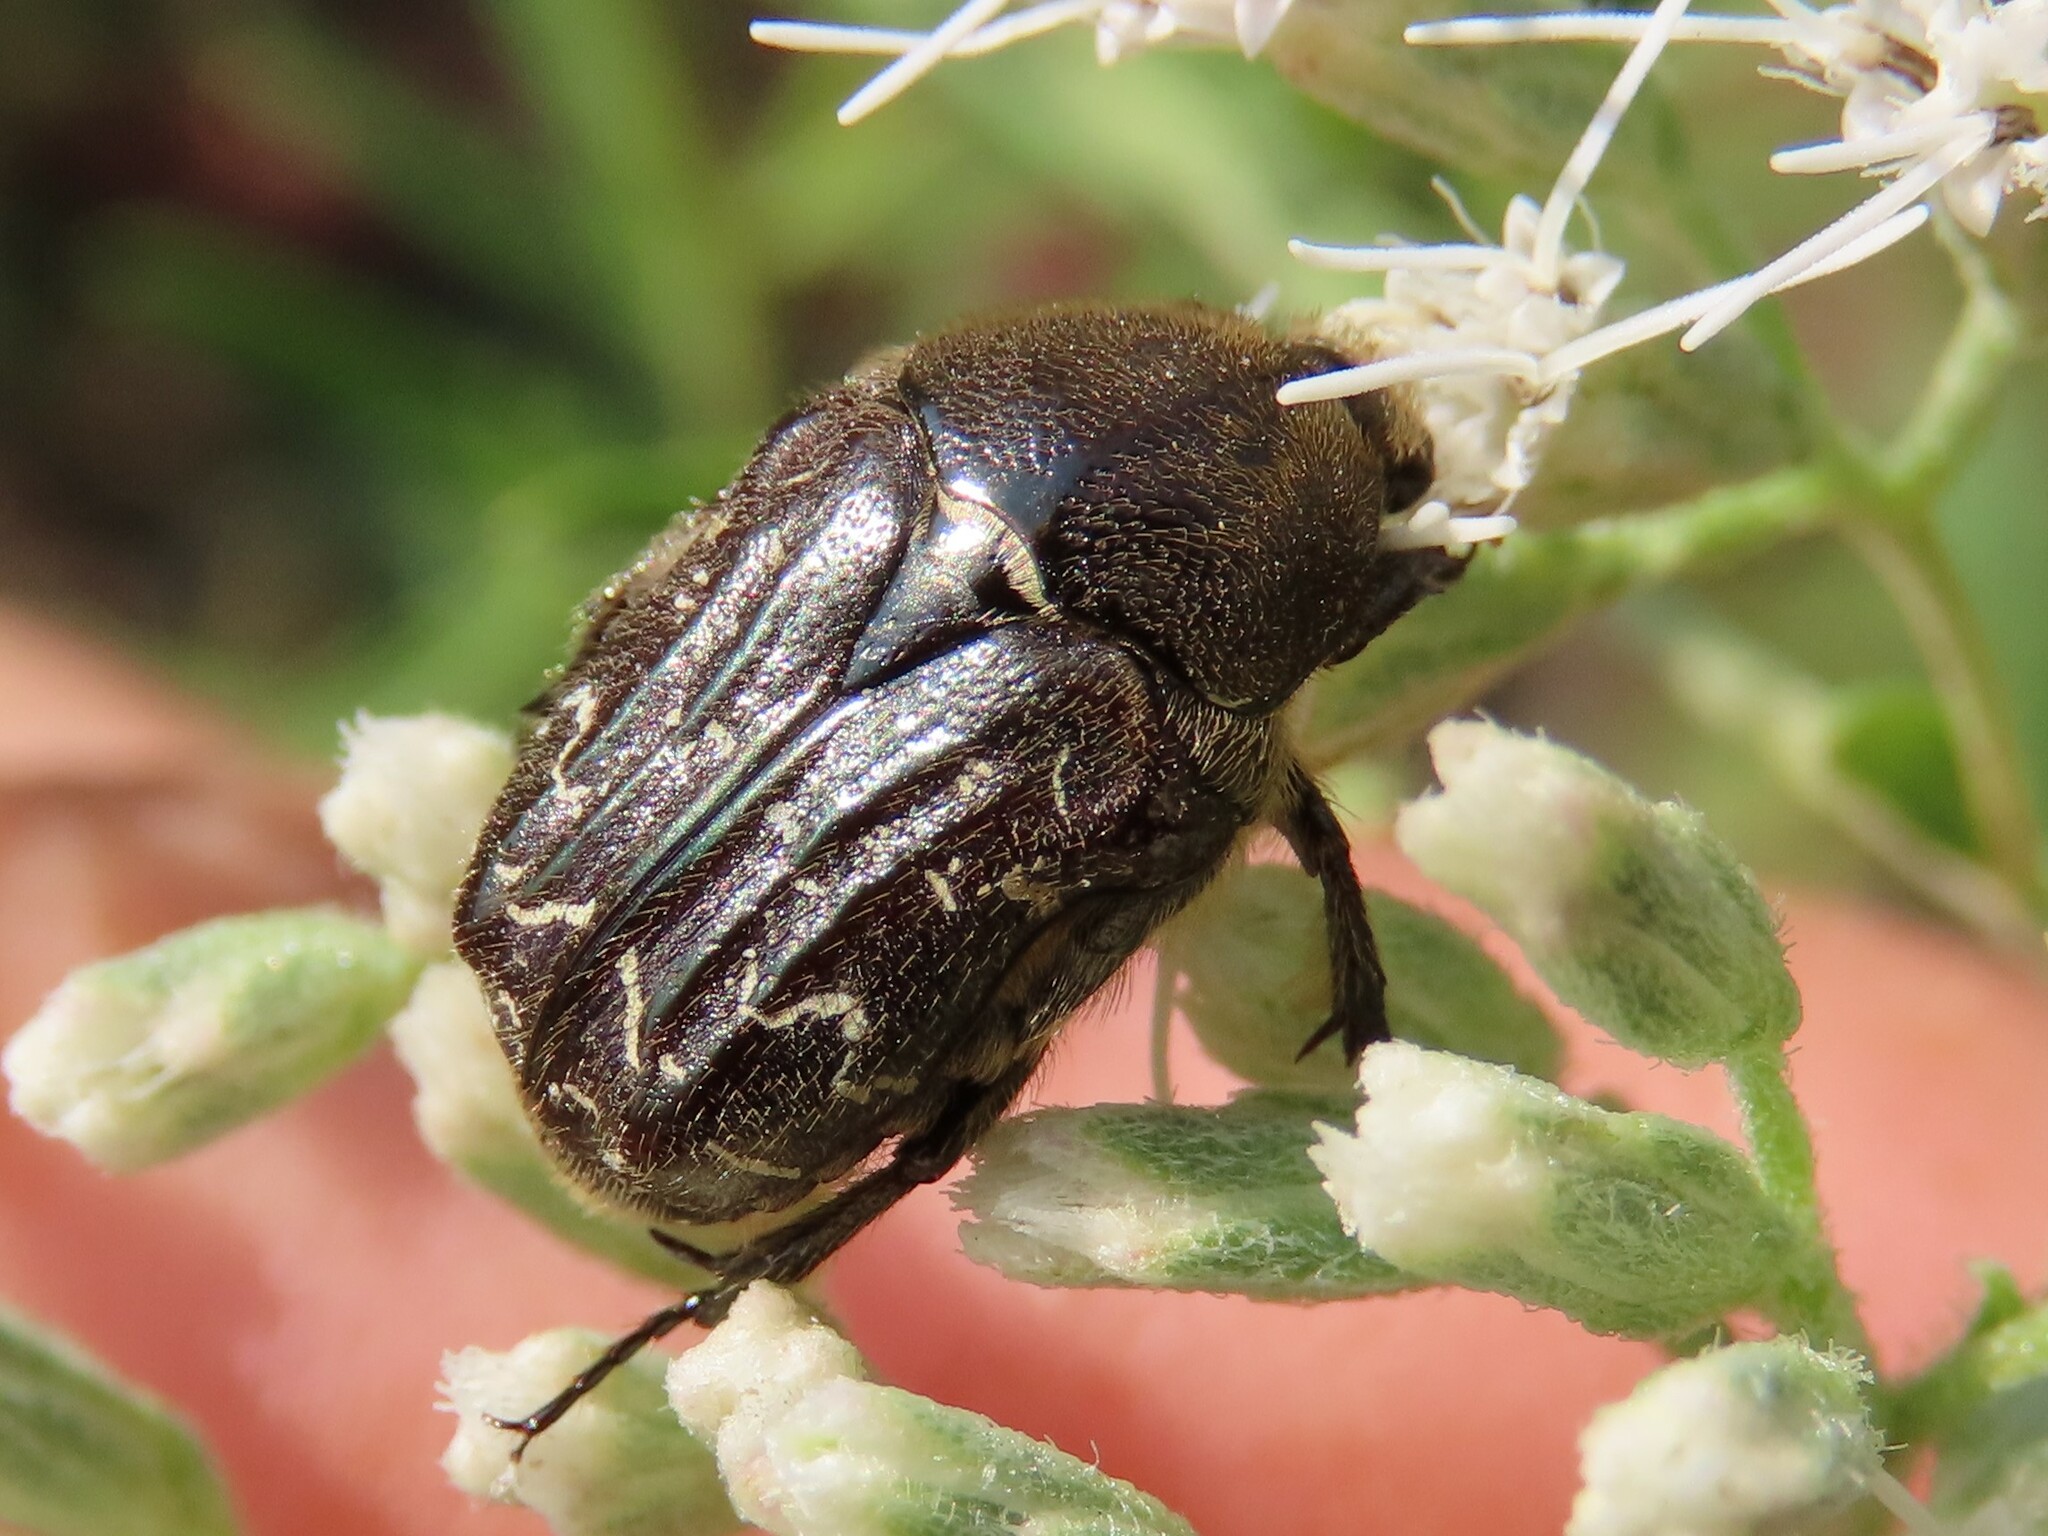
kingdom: Animalia
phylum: Arthropoda
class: Insecta
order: Coleoptera
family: Scarabaeidae
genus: Euphoria
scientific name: Euphoria sepulcralis
